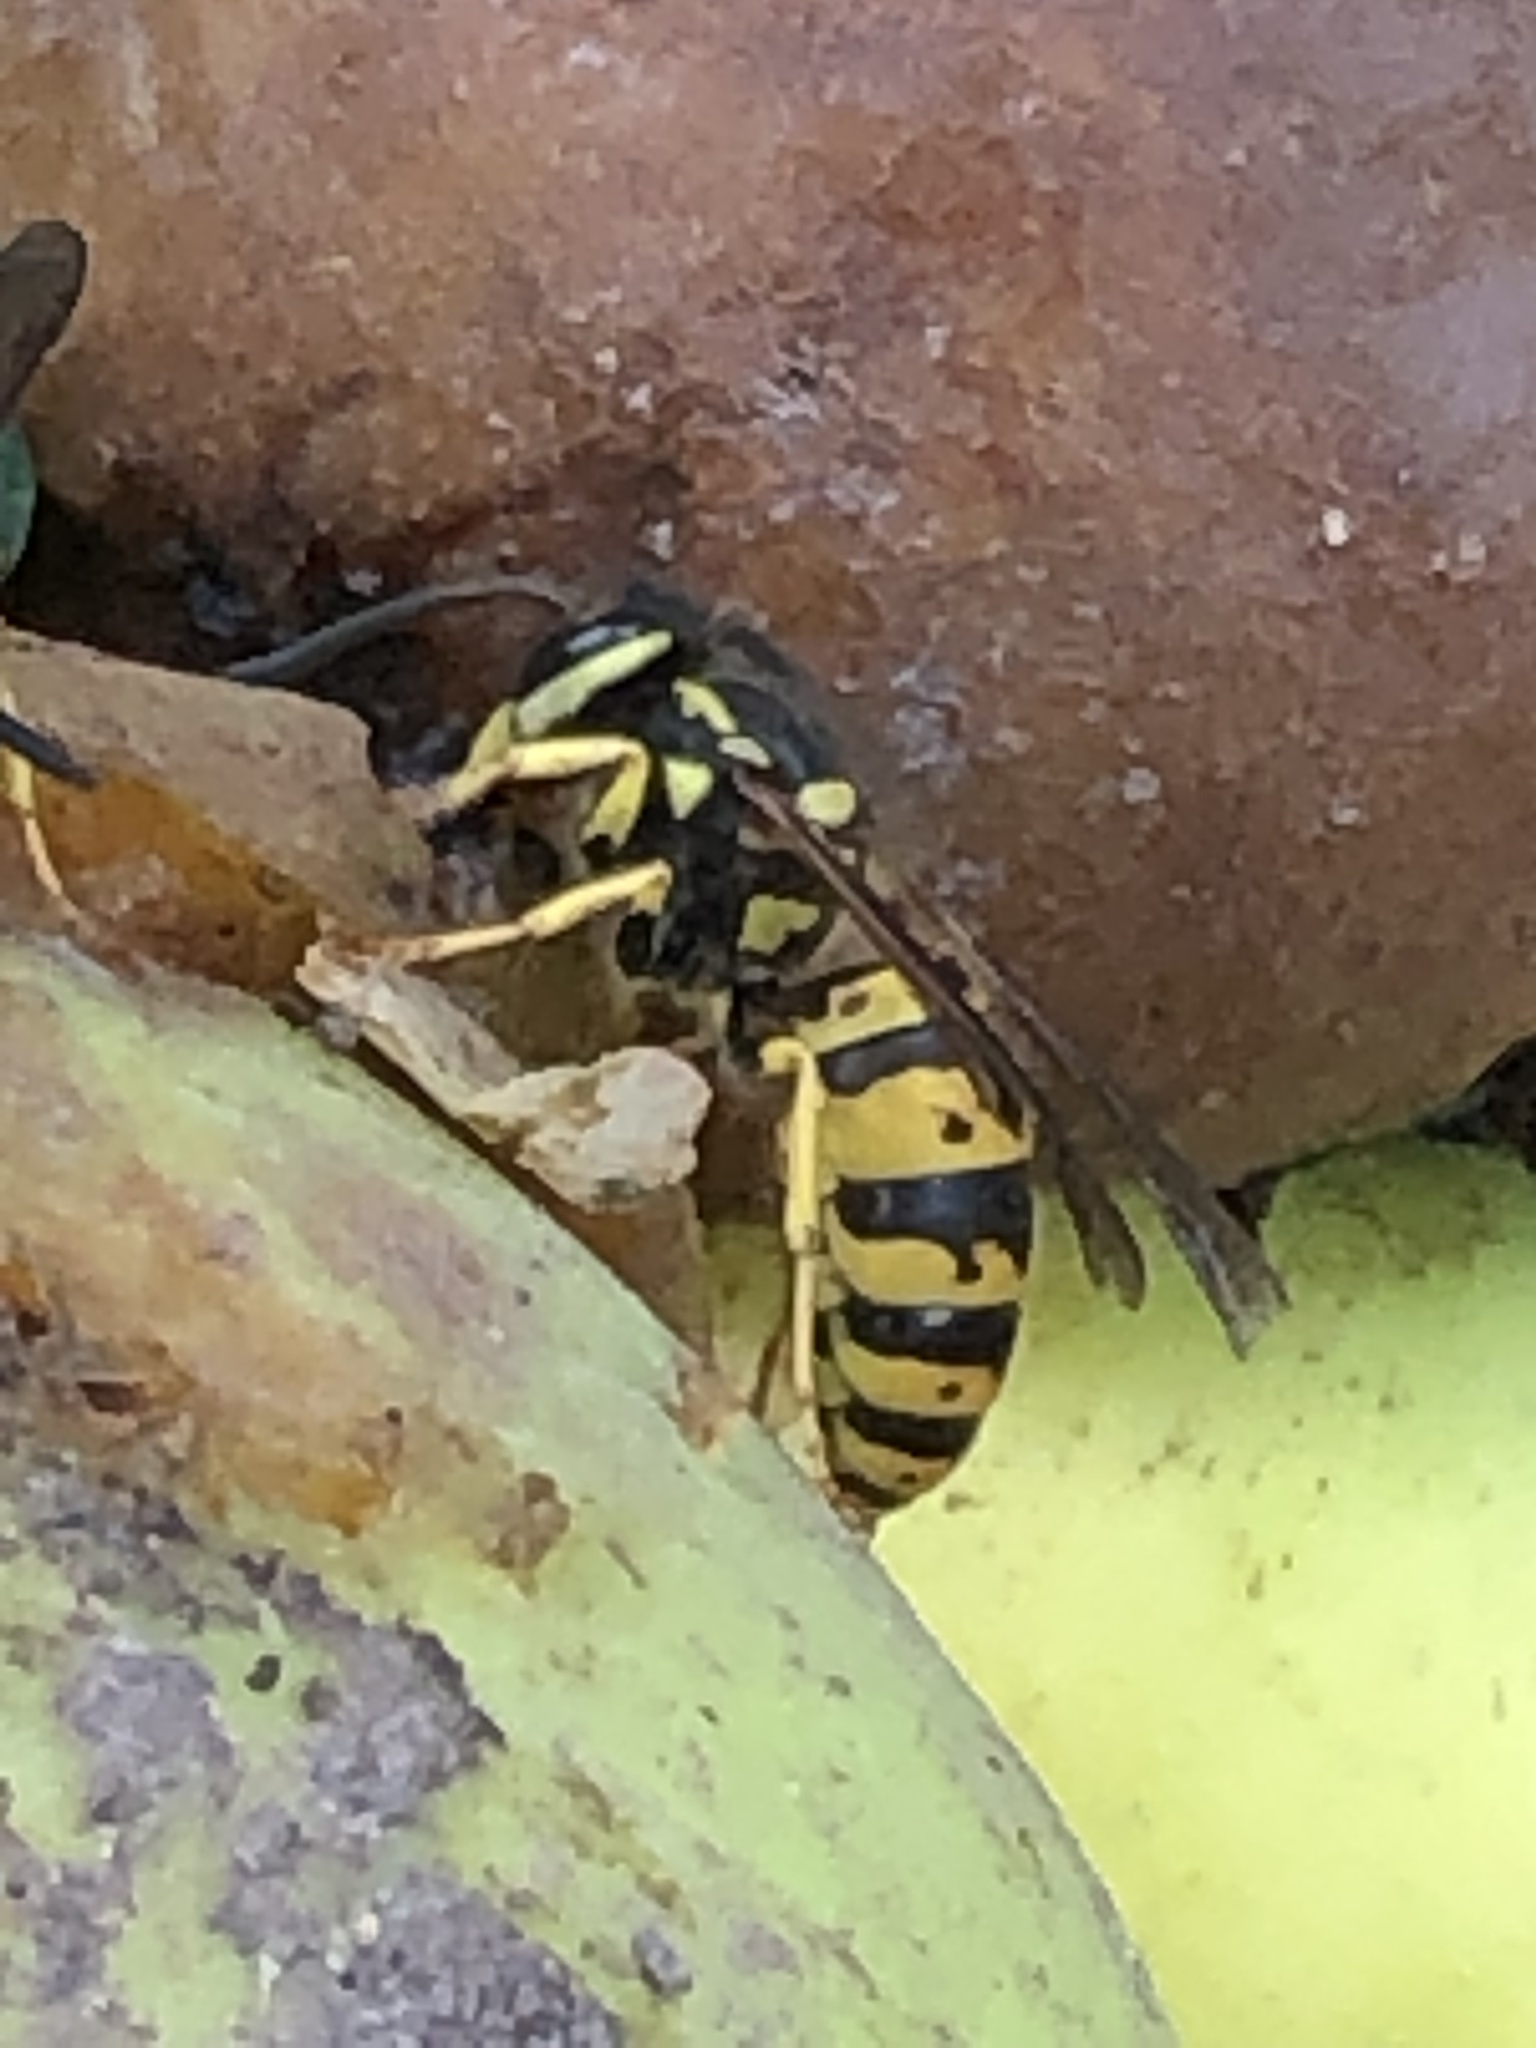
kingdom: Animalia
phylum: Arthropoda
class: Insecta
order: Hymenoptera
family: Vespidae
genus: Vespula
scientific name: Vespula germanica
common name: German wasp
